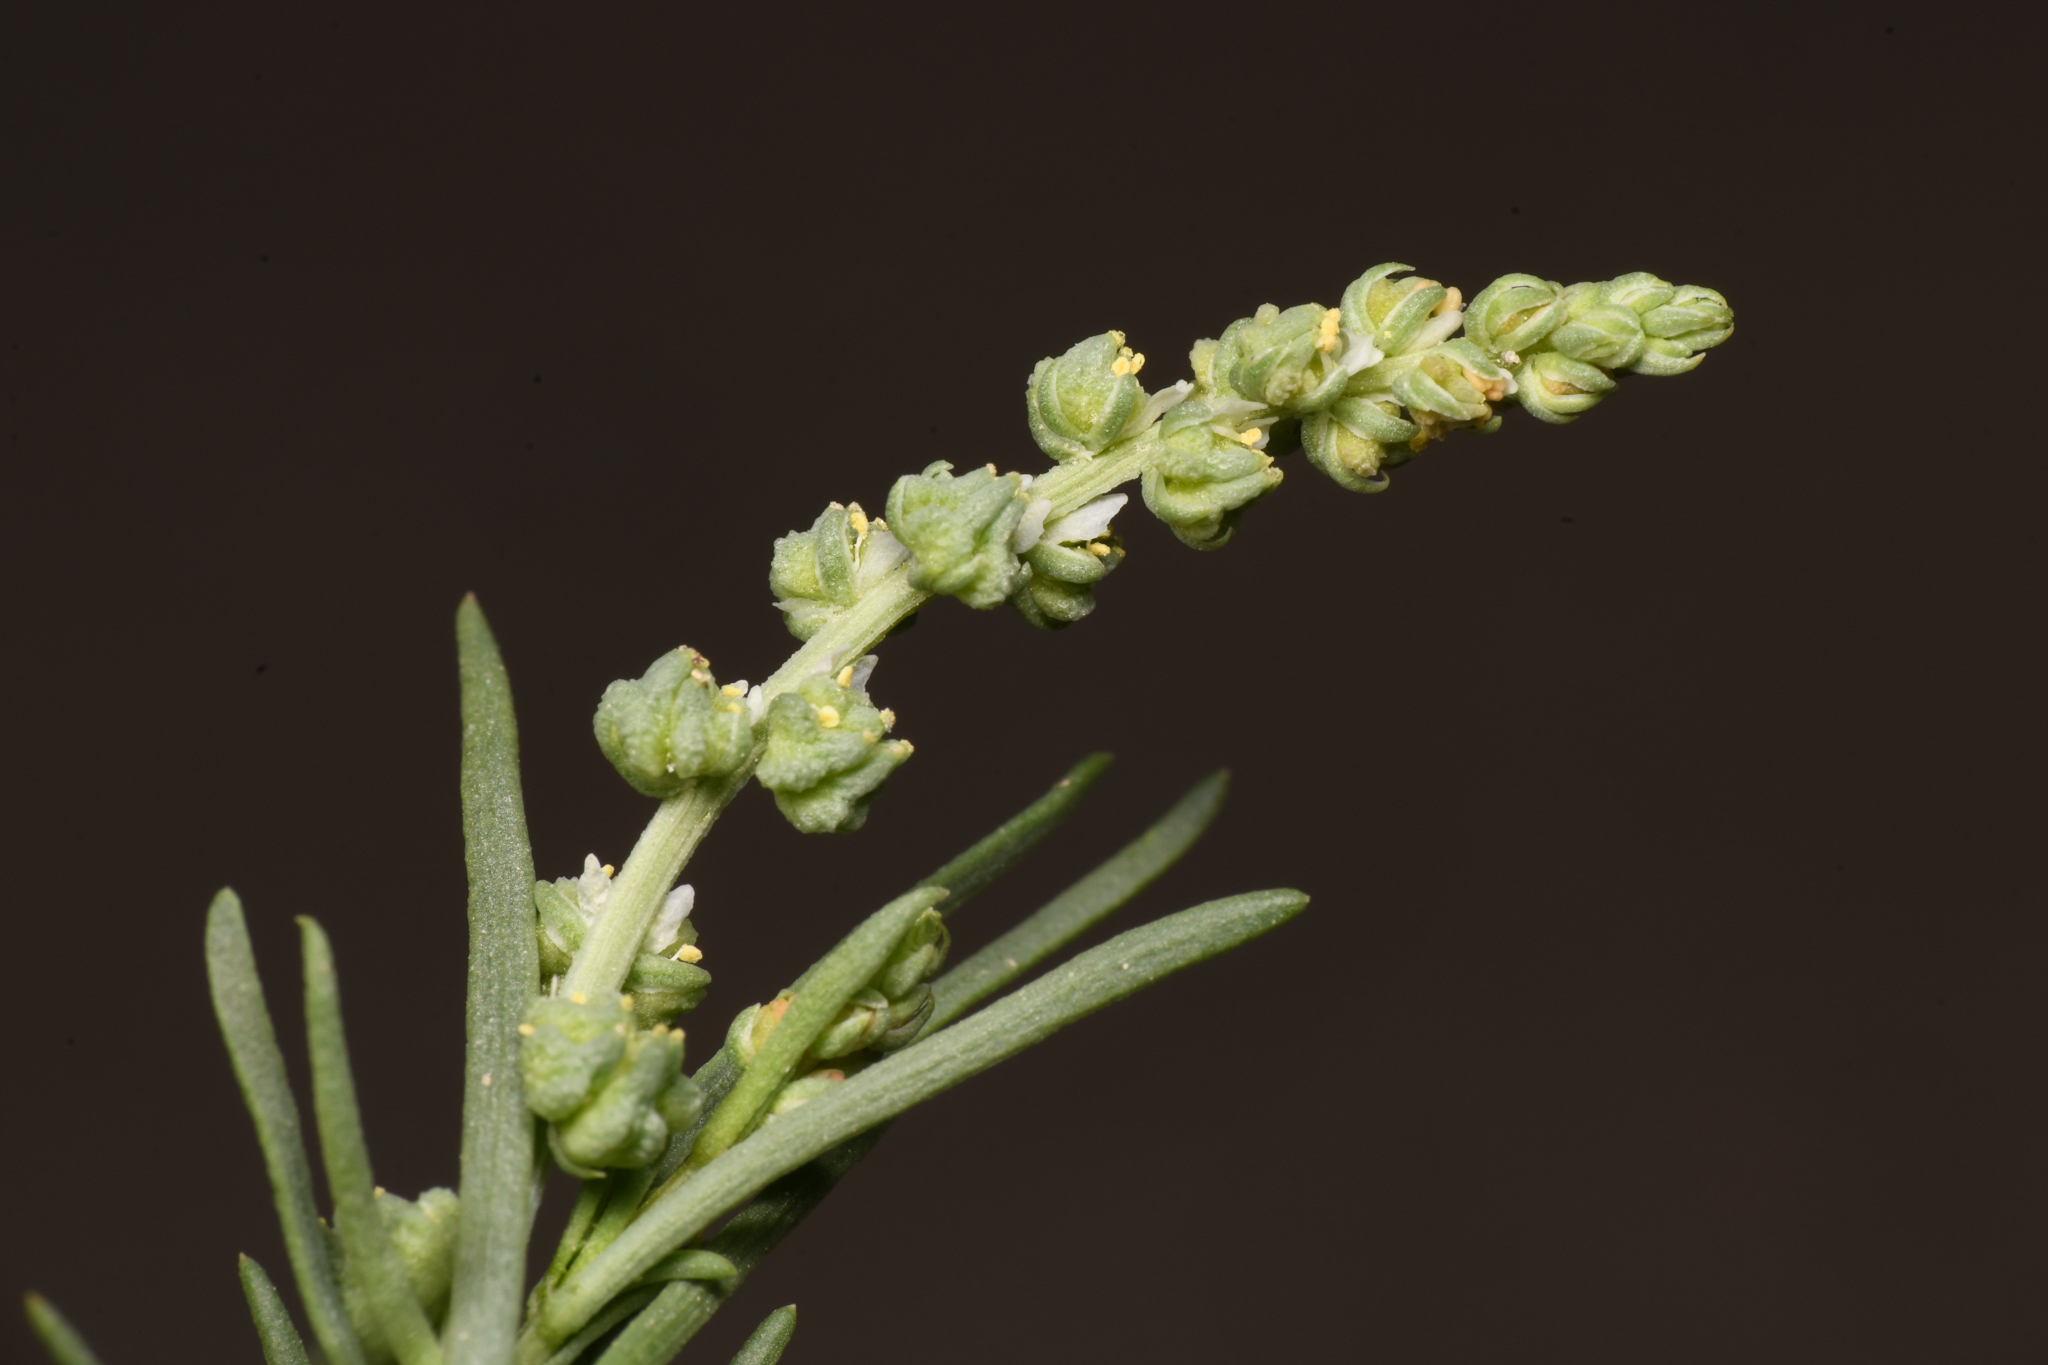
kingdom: Plantae
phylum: Tracheophyta
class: Magnoliopsida
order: Brassicales
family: Resedaceae
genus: Oligomeris
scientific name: Oligomeris linifolia
